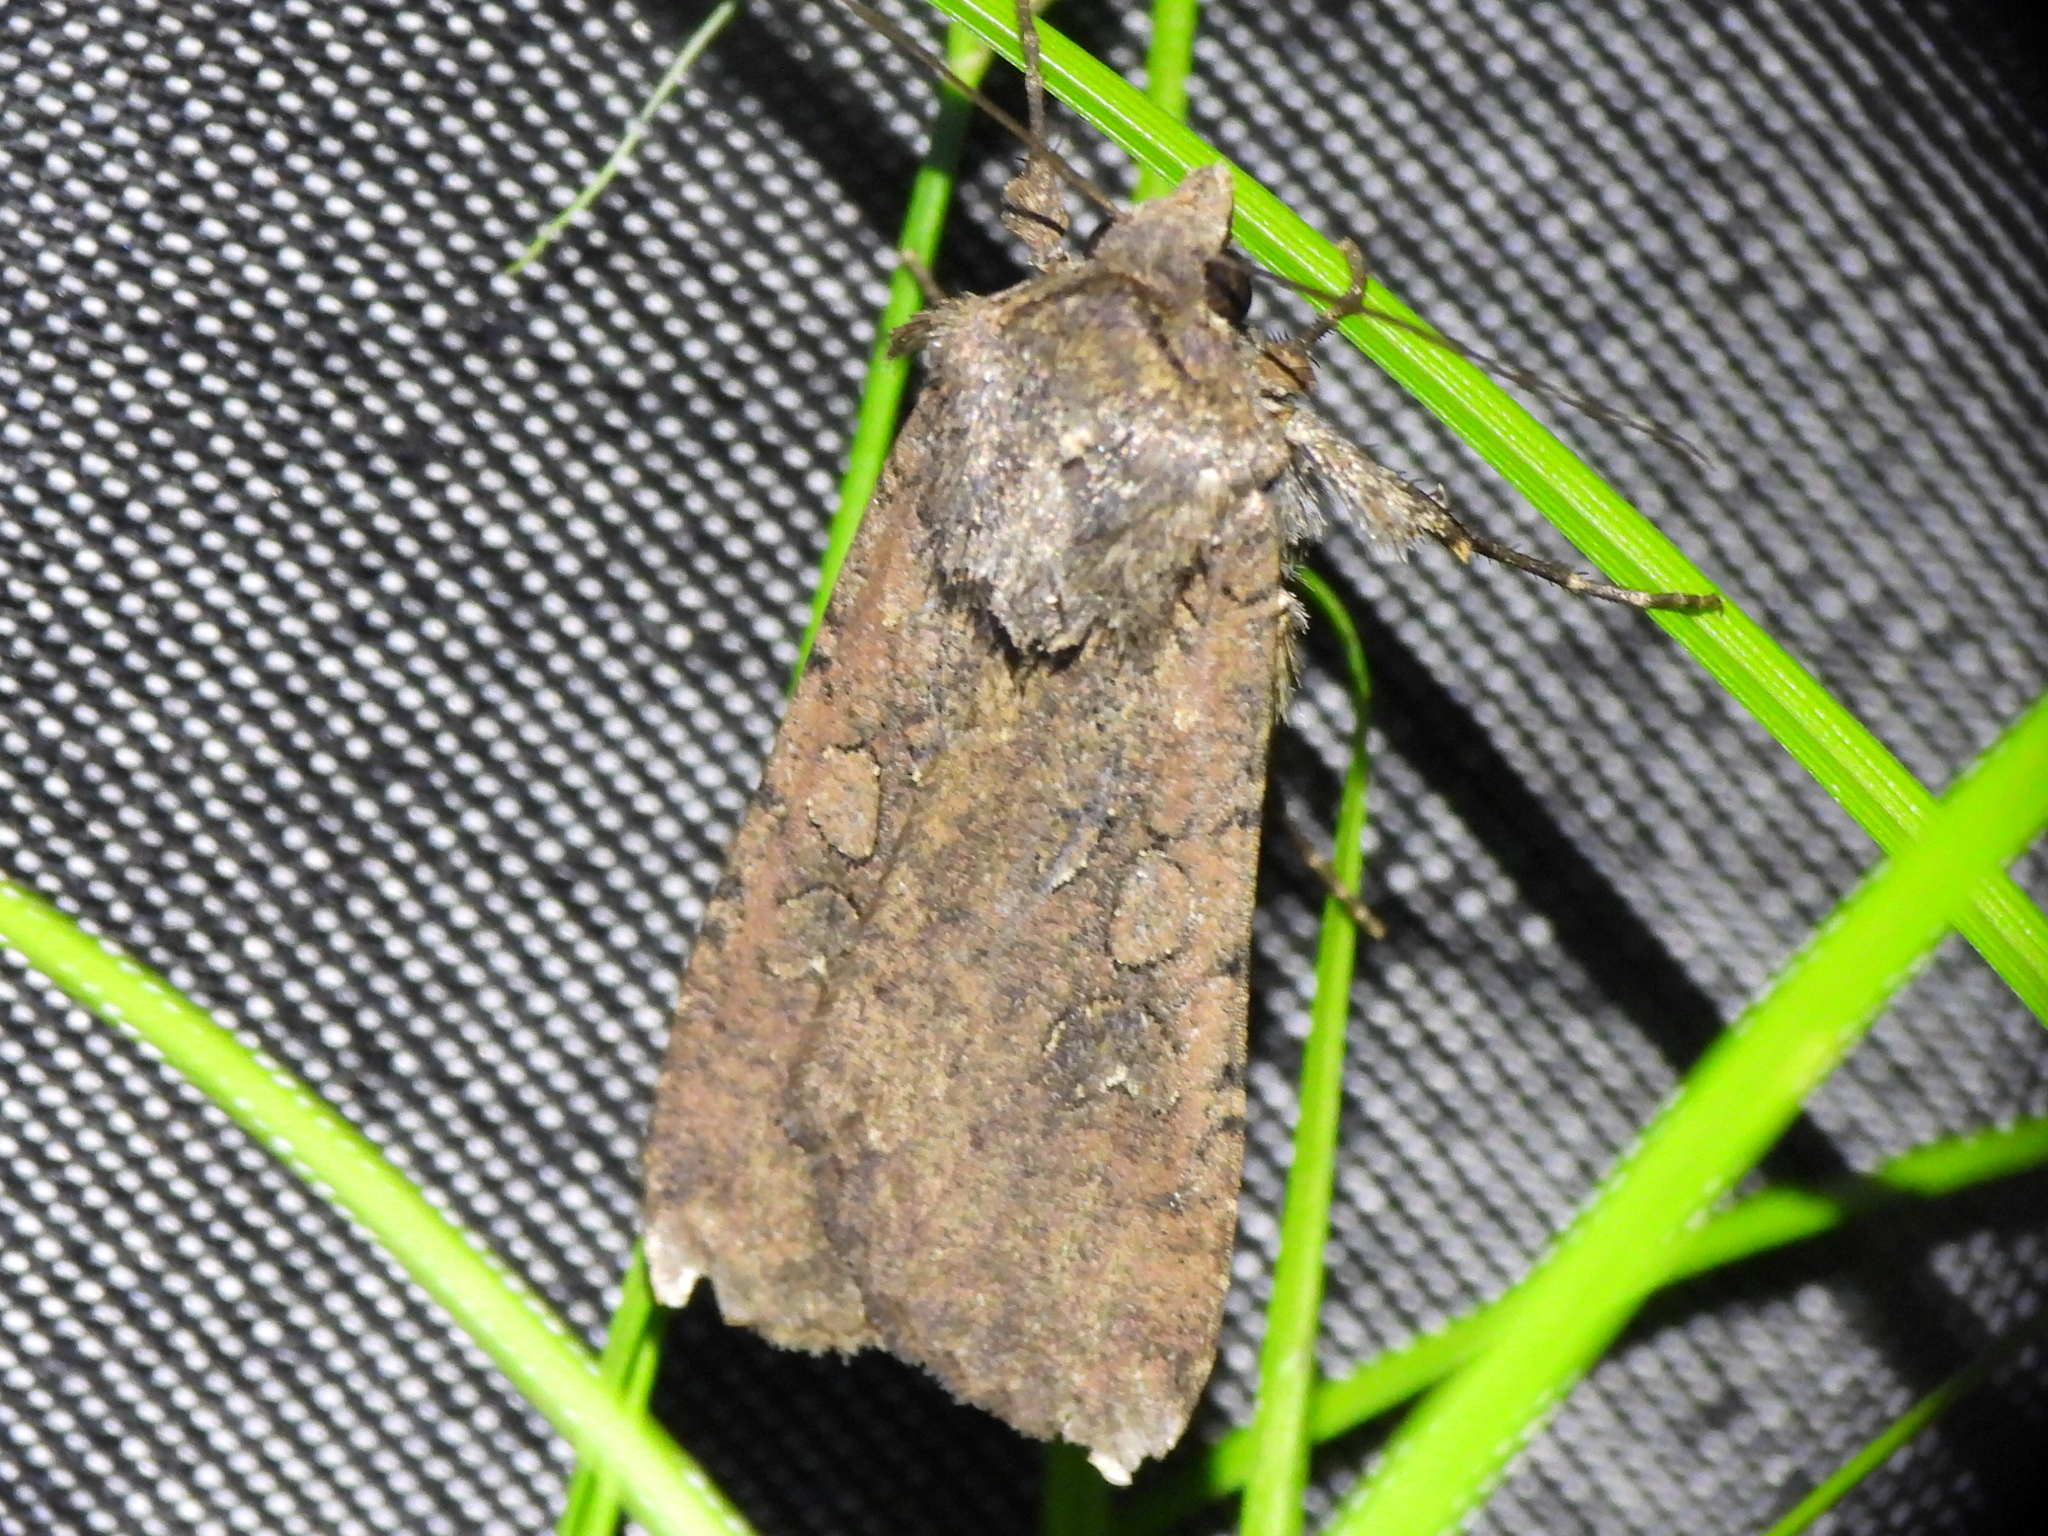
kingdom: Animalia
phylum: Arthropoda
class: Insecta
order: Lepidoptera
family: Noctuidae
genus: Peridroma
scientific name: Peridroma saucia
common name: Pearly underwing
